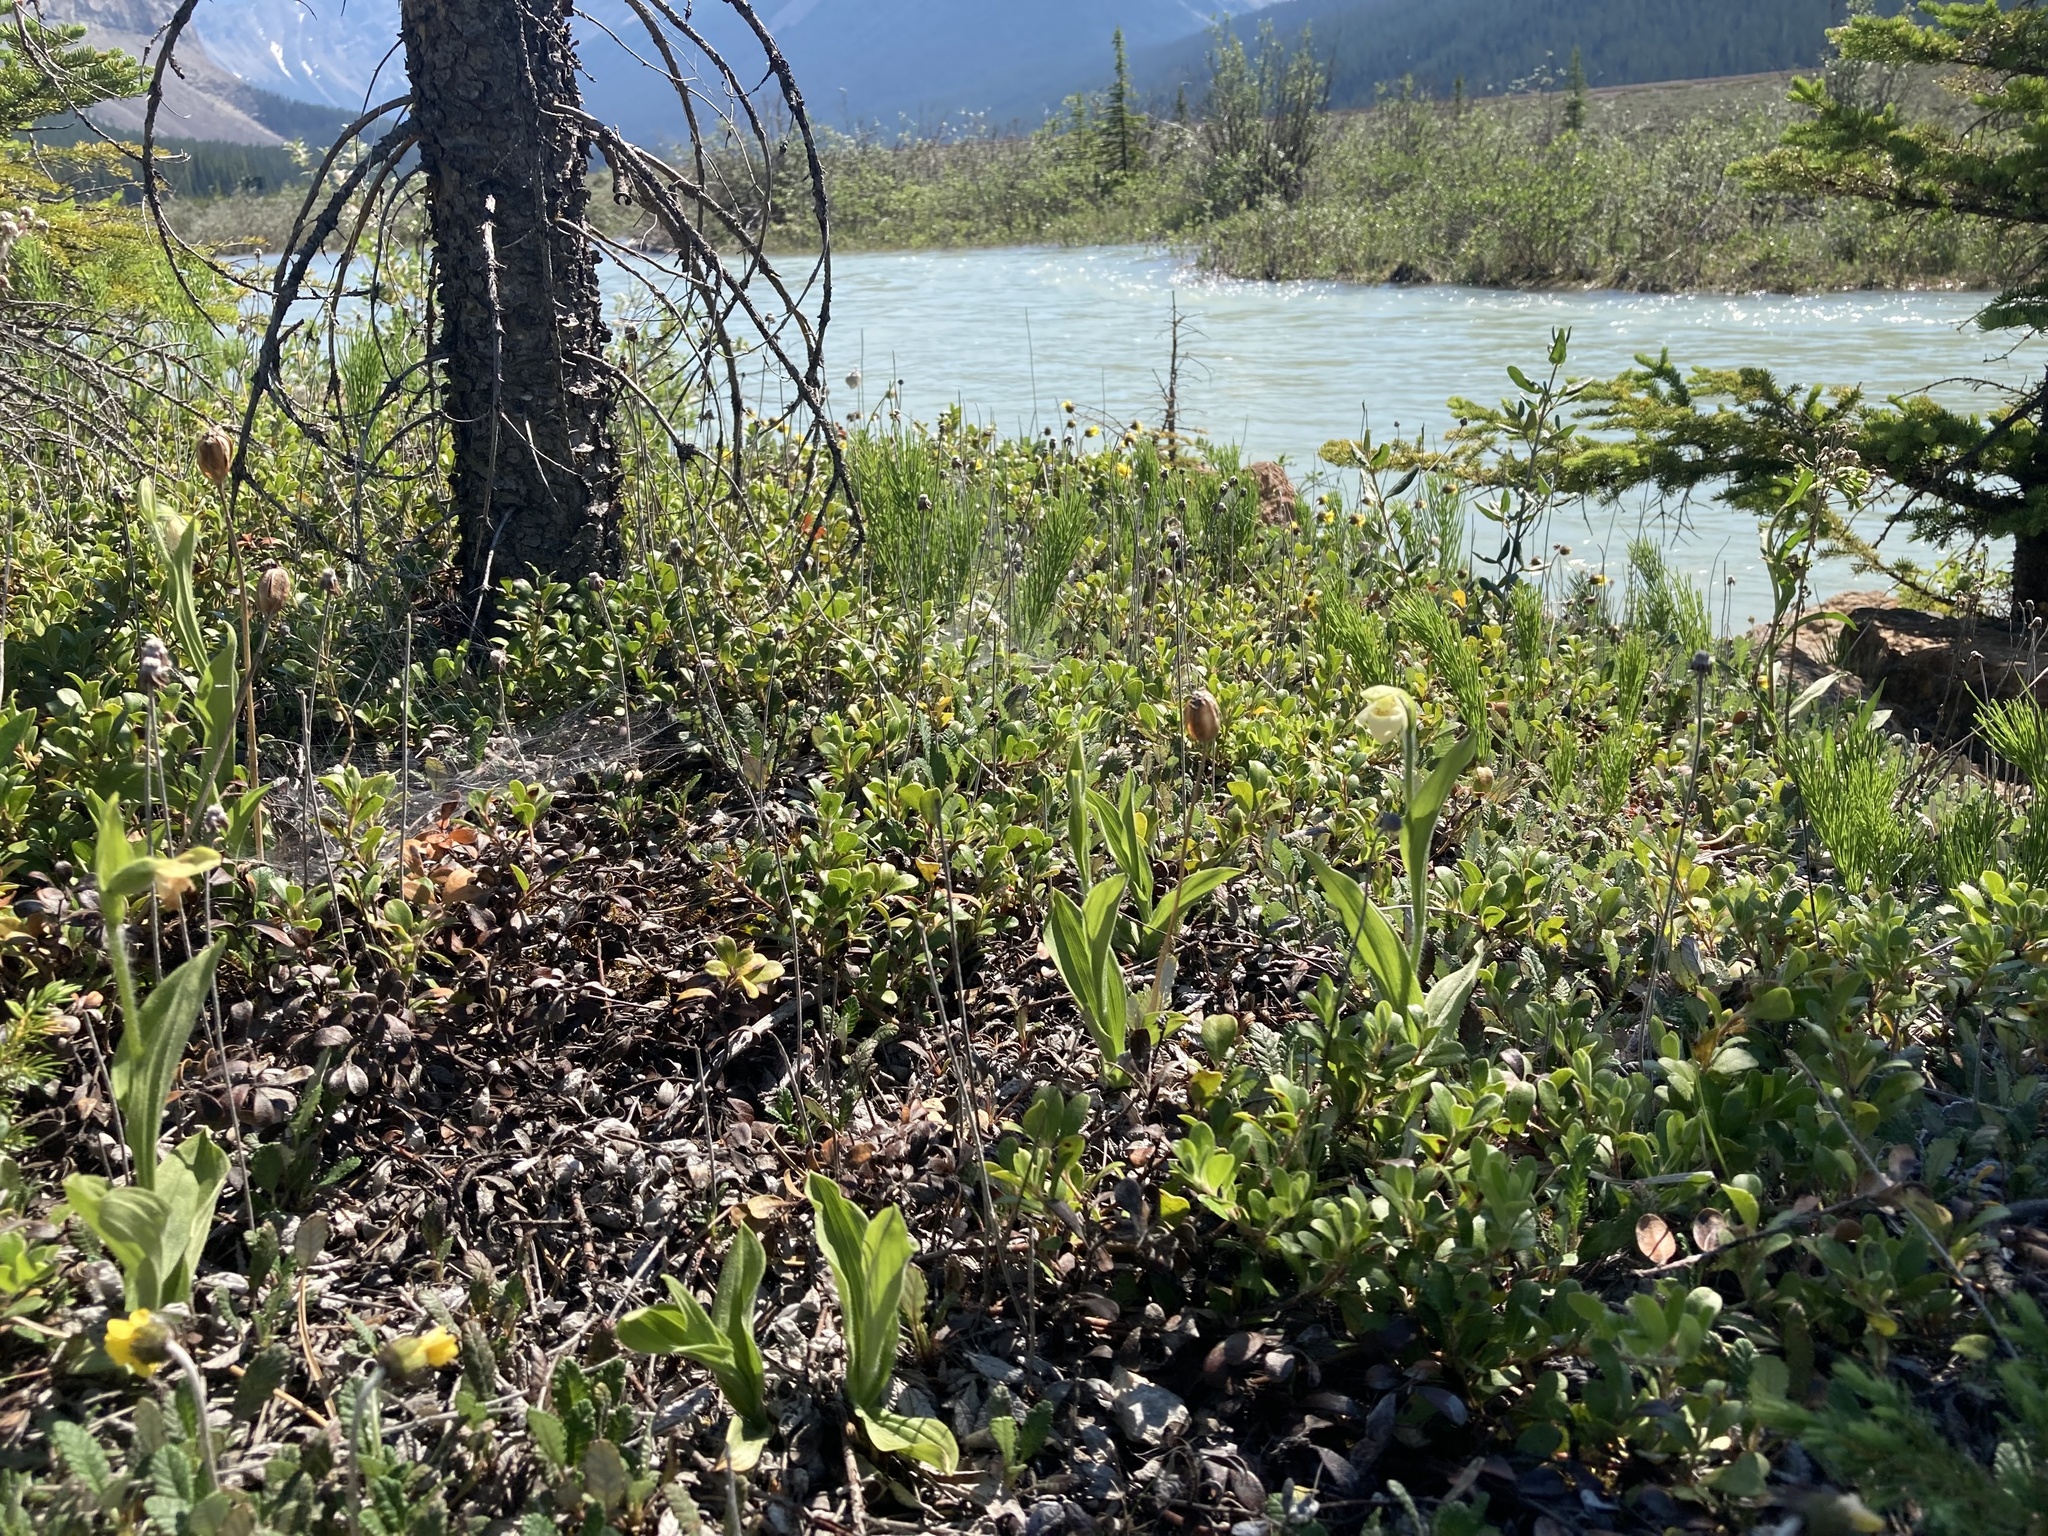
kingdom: Plantae
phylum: Tracheophyta
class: Liliopsida
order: Asparagales
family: Orchidaceae
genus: Cypripedium
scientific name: Cypripedium passerinum
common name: Sparrow's-egg lady's-slipper
